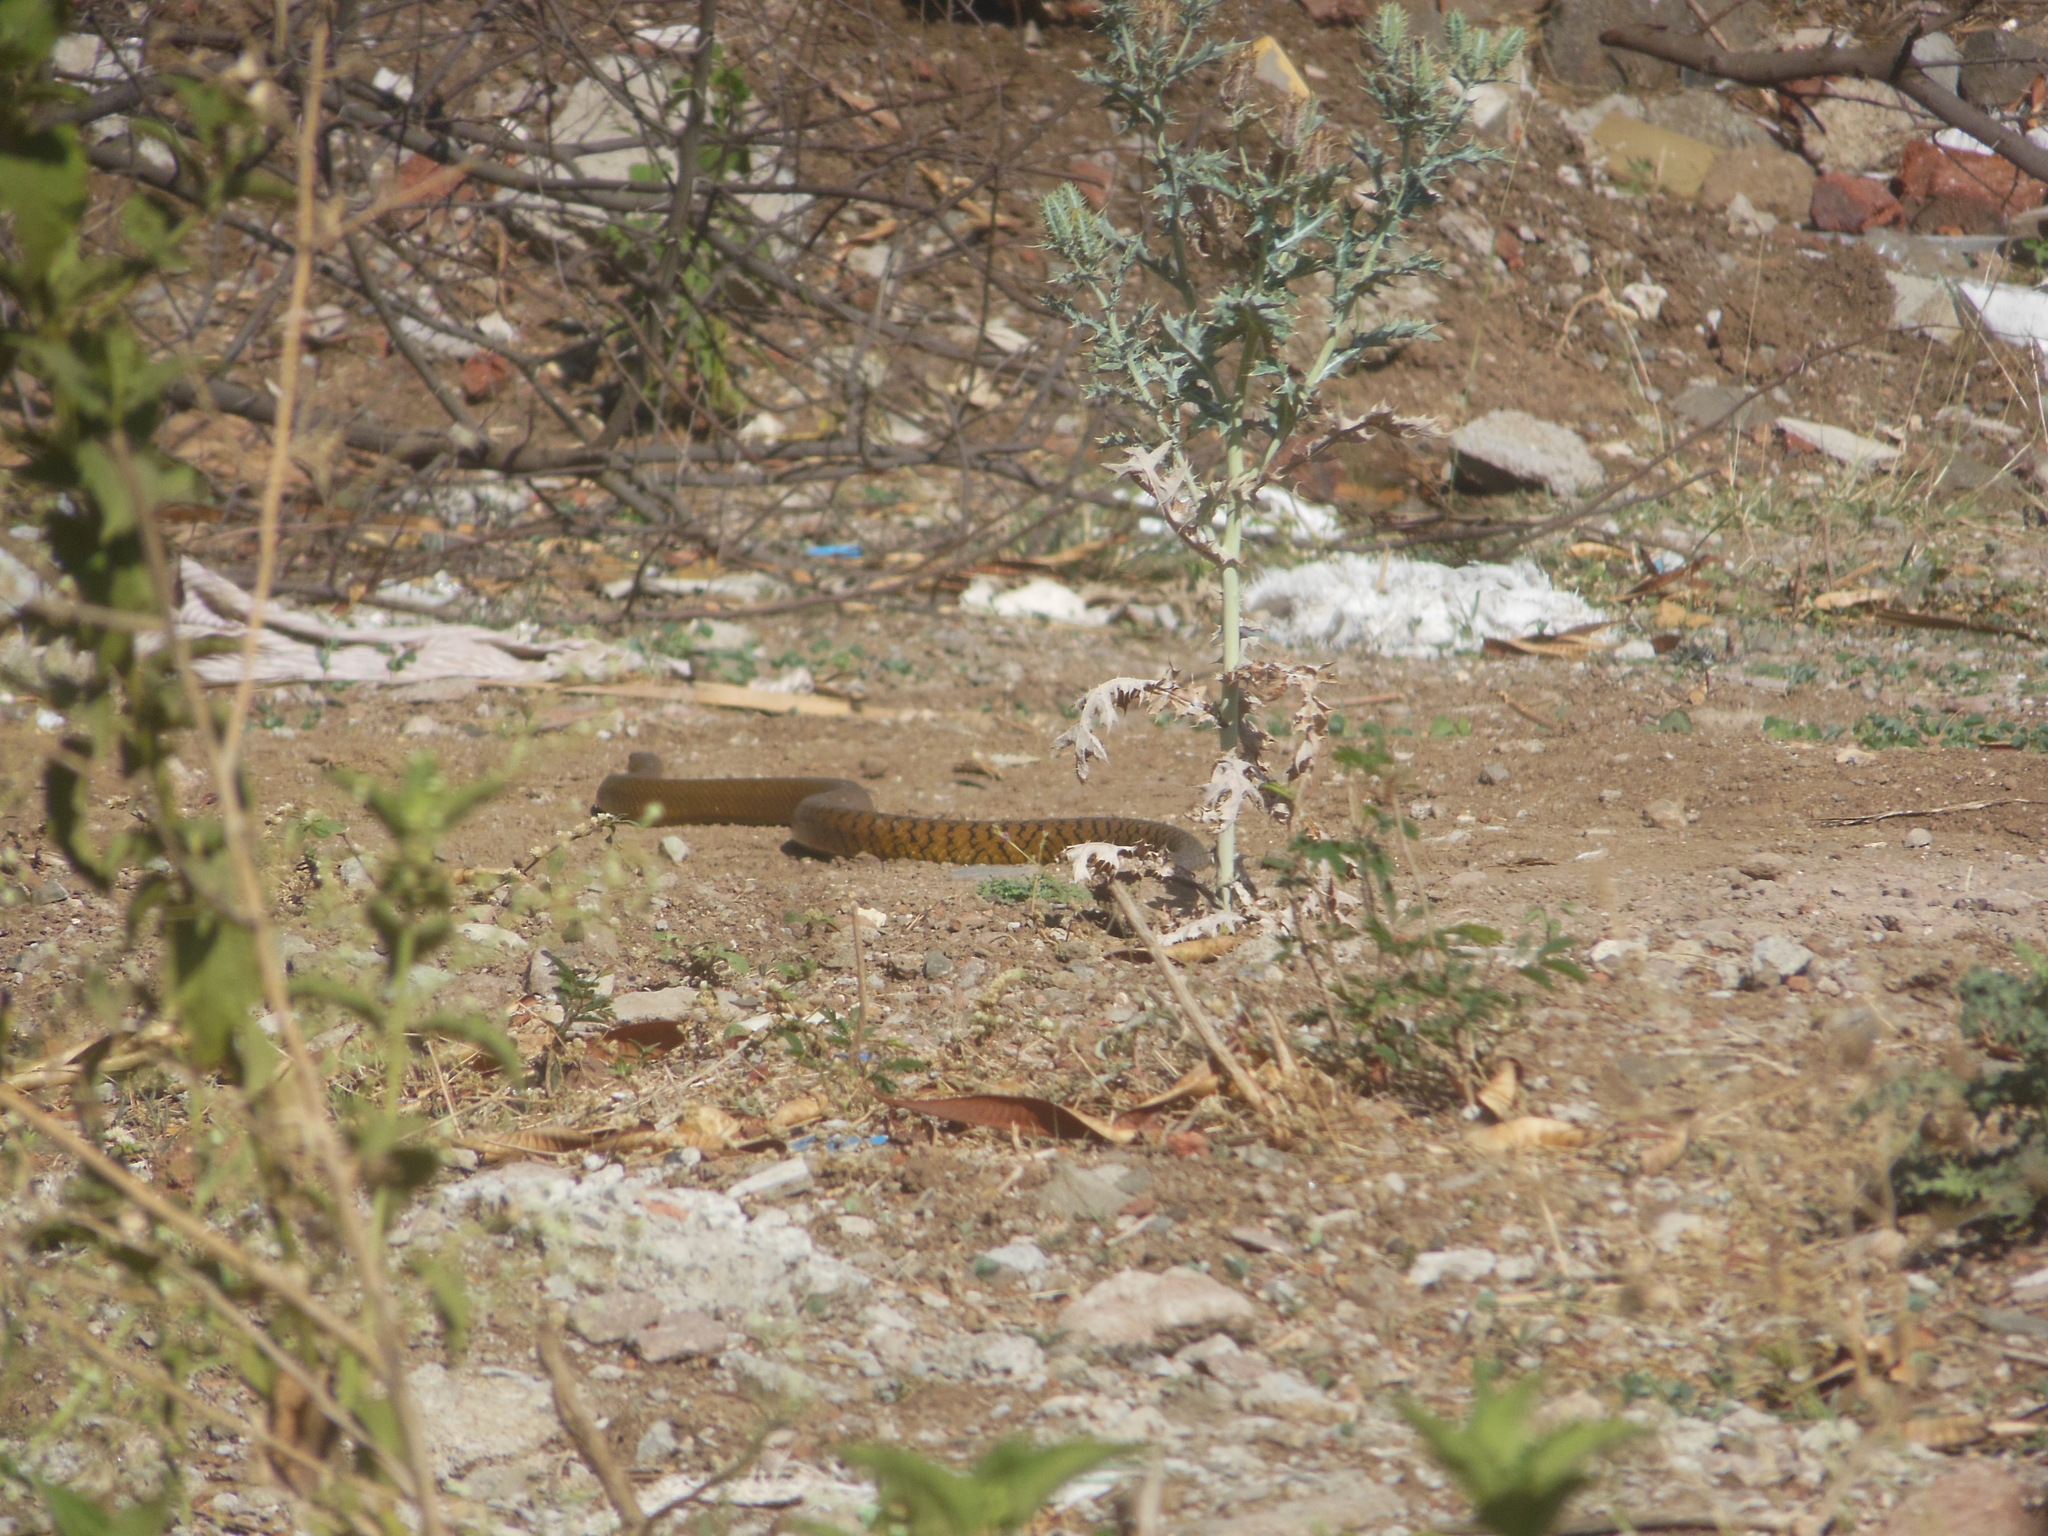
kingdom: Animalia
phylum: Chordata
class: Squamata
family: Colubridae
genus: Ptyas
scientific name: Ptyas mucosa
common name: Oriental ratsnake
